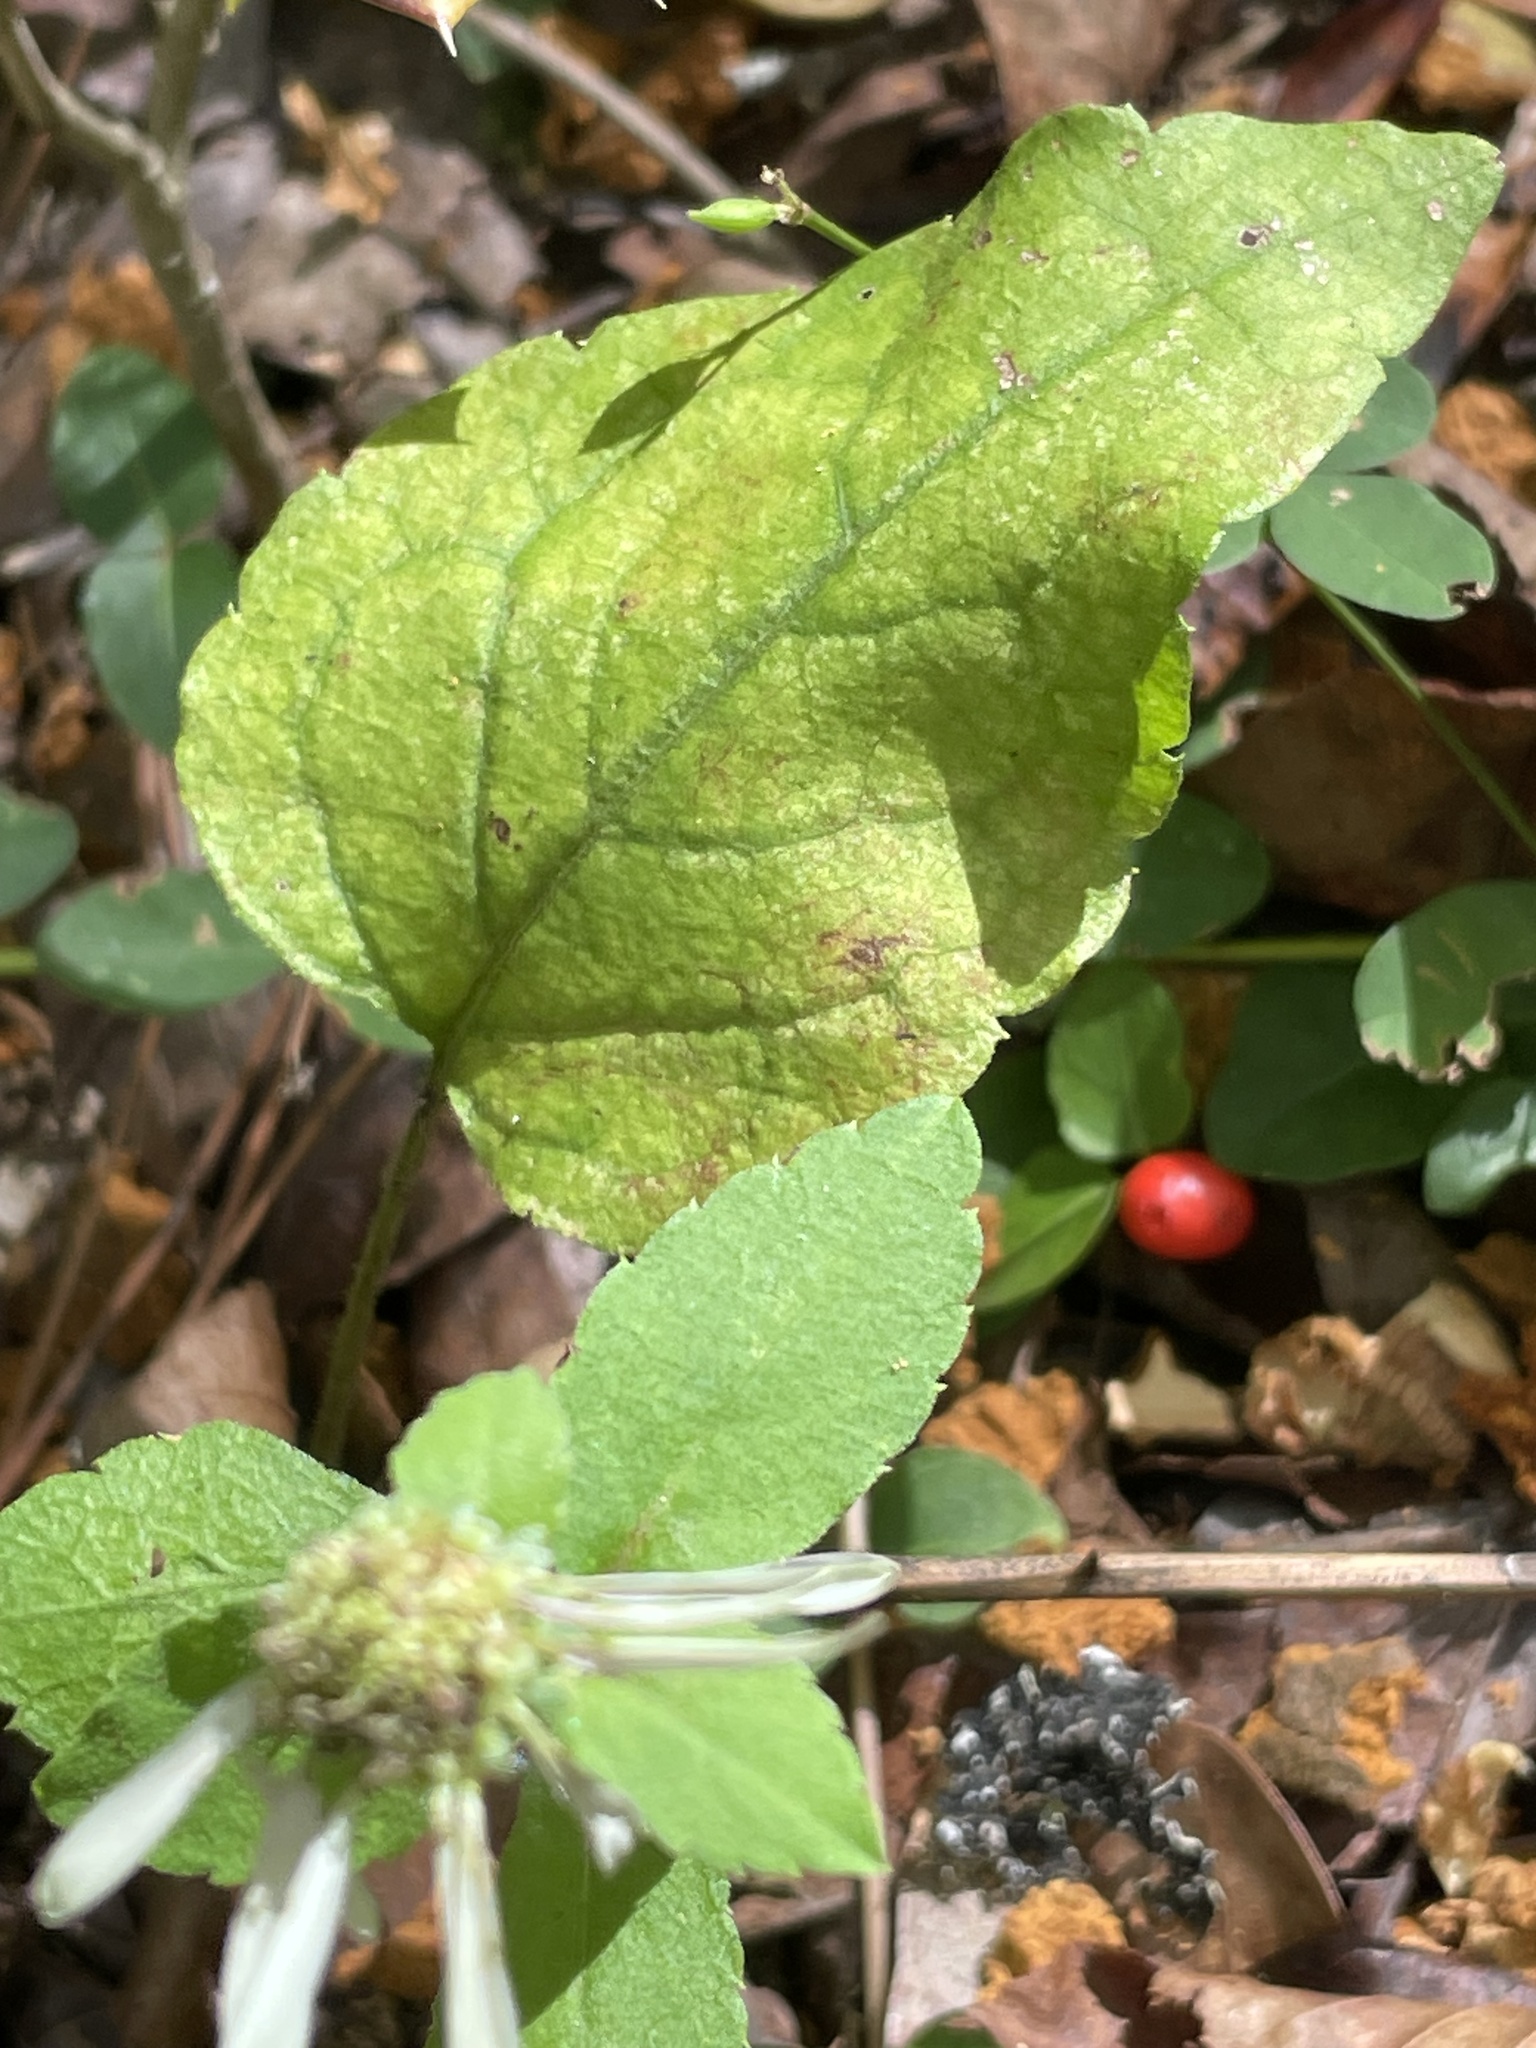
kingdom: Plantae
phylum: Tracheophyta
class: Magnoliopsida
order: Asterales
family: Asteraceae
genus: Eurybia
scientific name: Eurybia mirabilis
